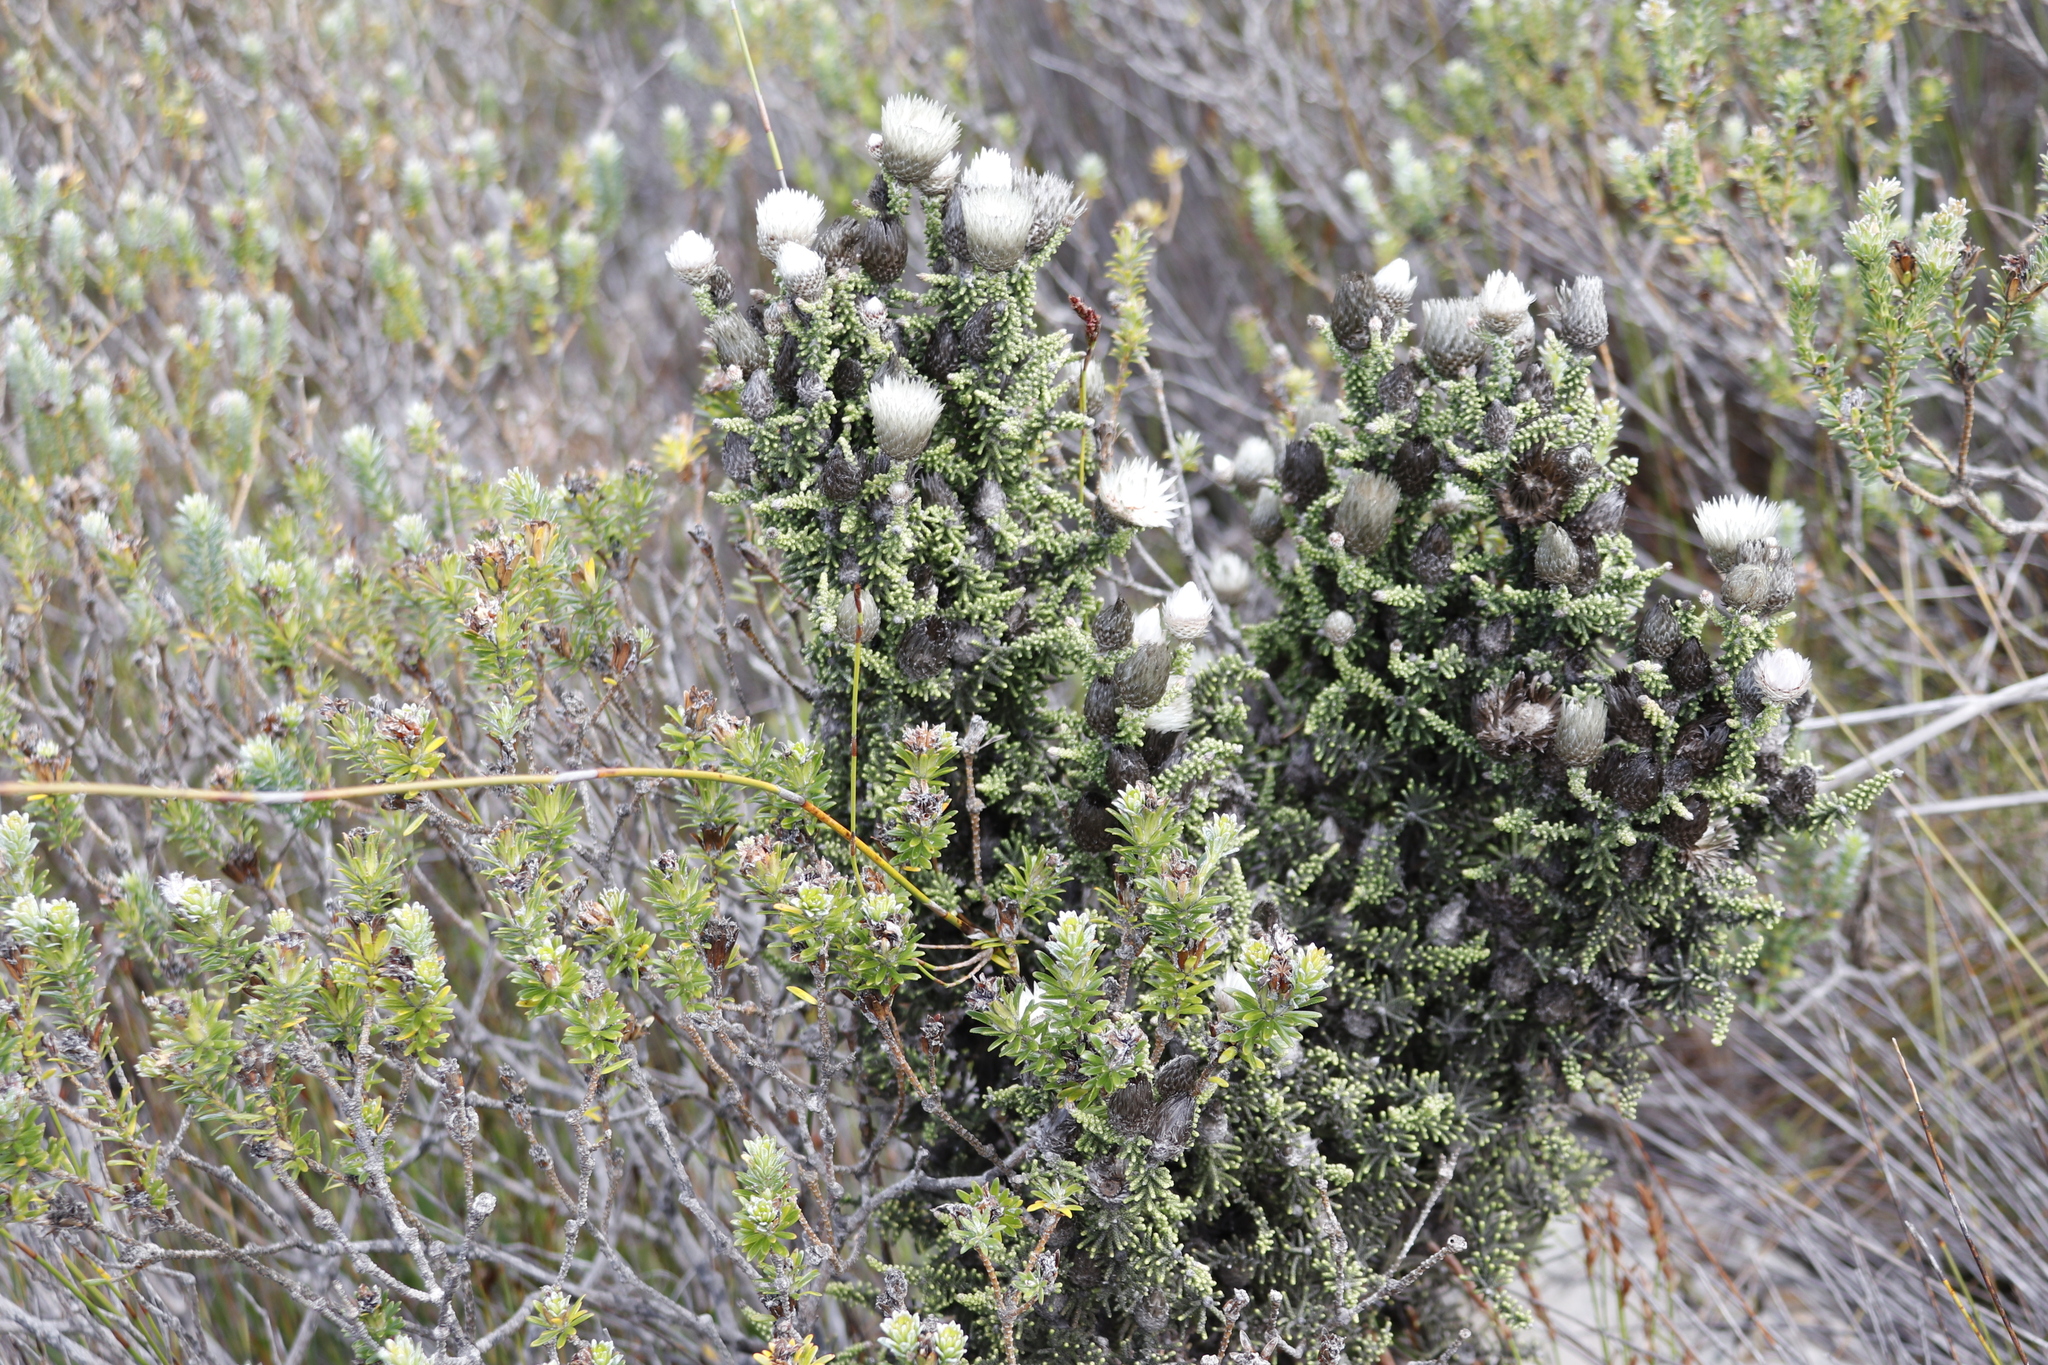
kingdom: Plantae
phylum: Tracheophyta
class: Magnoliopsida
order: Asterales
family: Asteraceae
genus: Phaenocoma
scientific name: Phaenocoma prolifera
